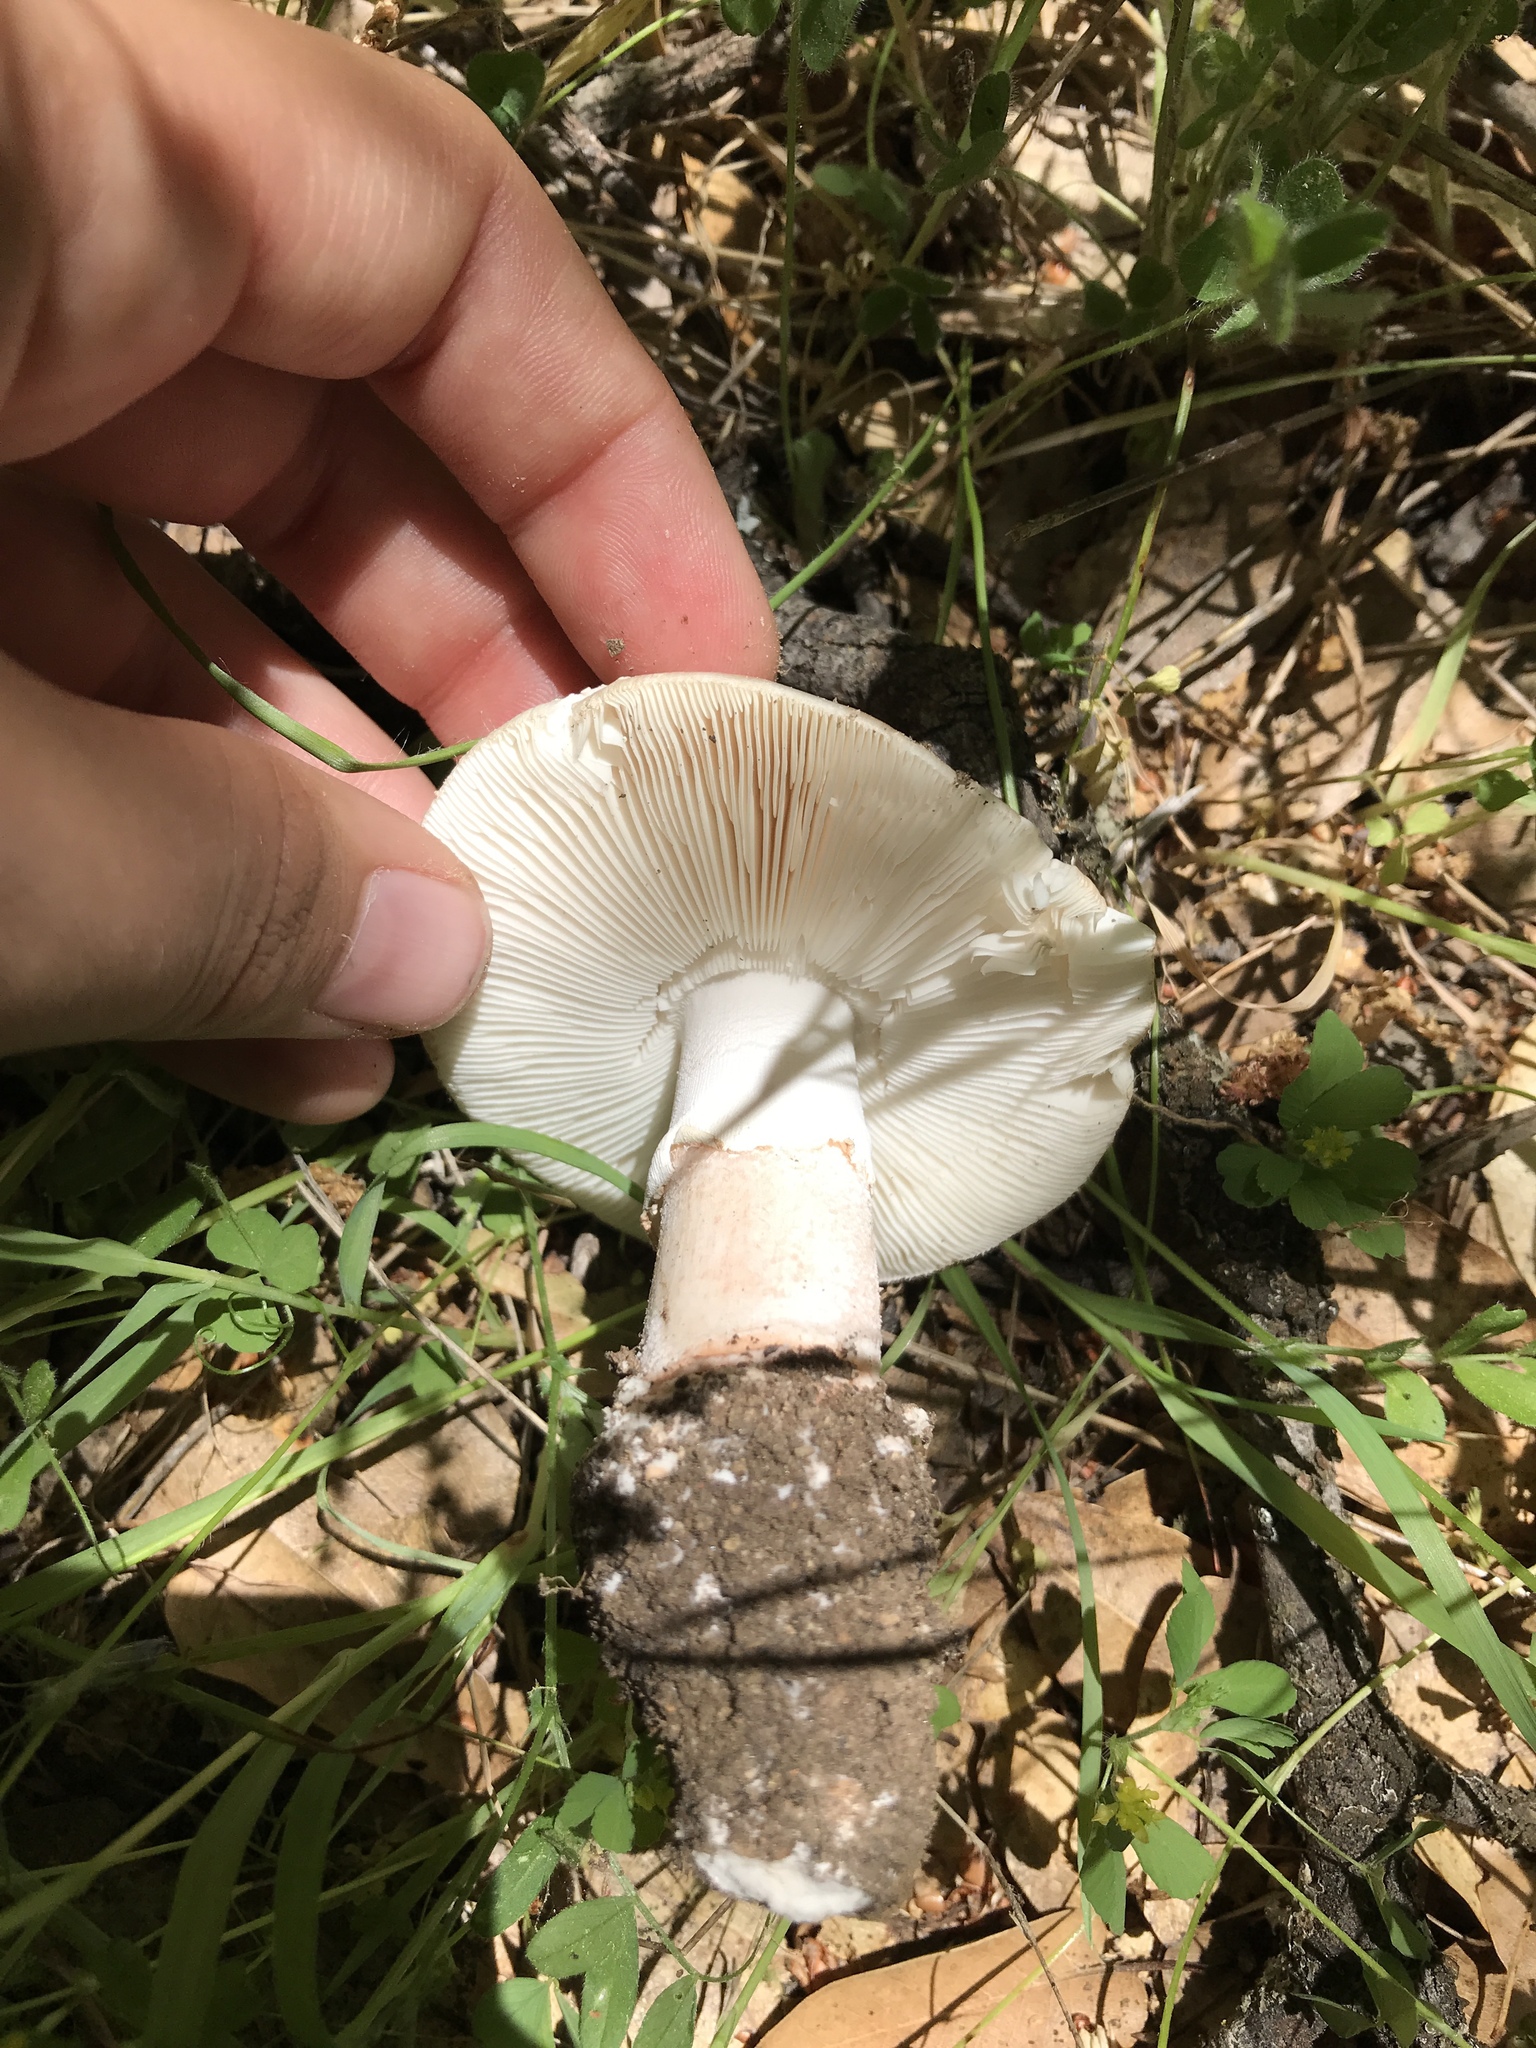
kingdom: Fungi
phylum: Basidiomycota
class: Agaricomycetes
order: Agaricales
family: Amanitaceae
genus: Amanita
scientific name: Amanita ocreata
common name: Western destroying angel
